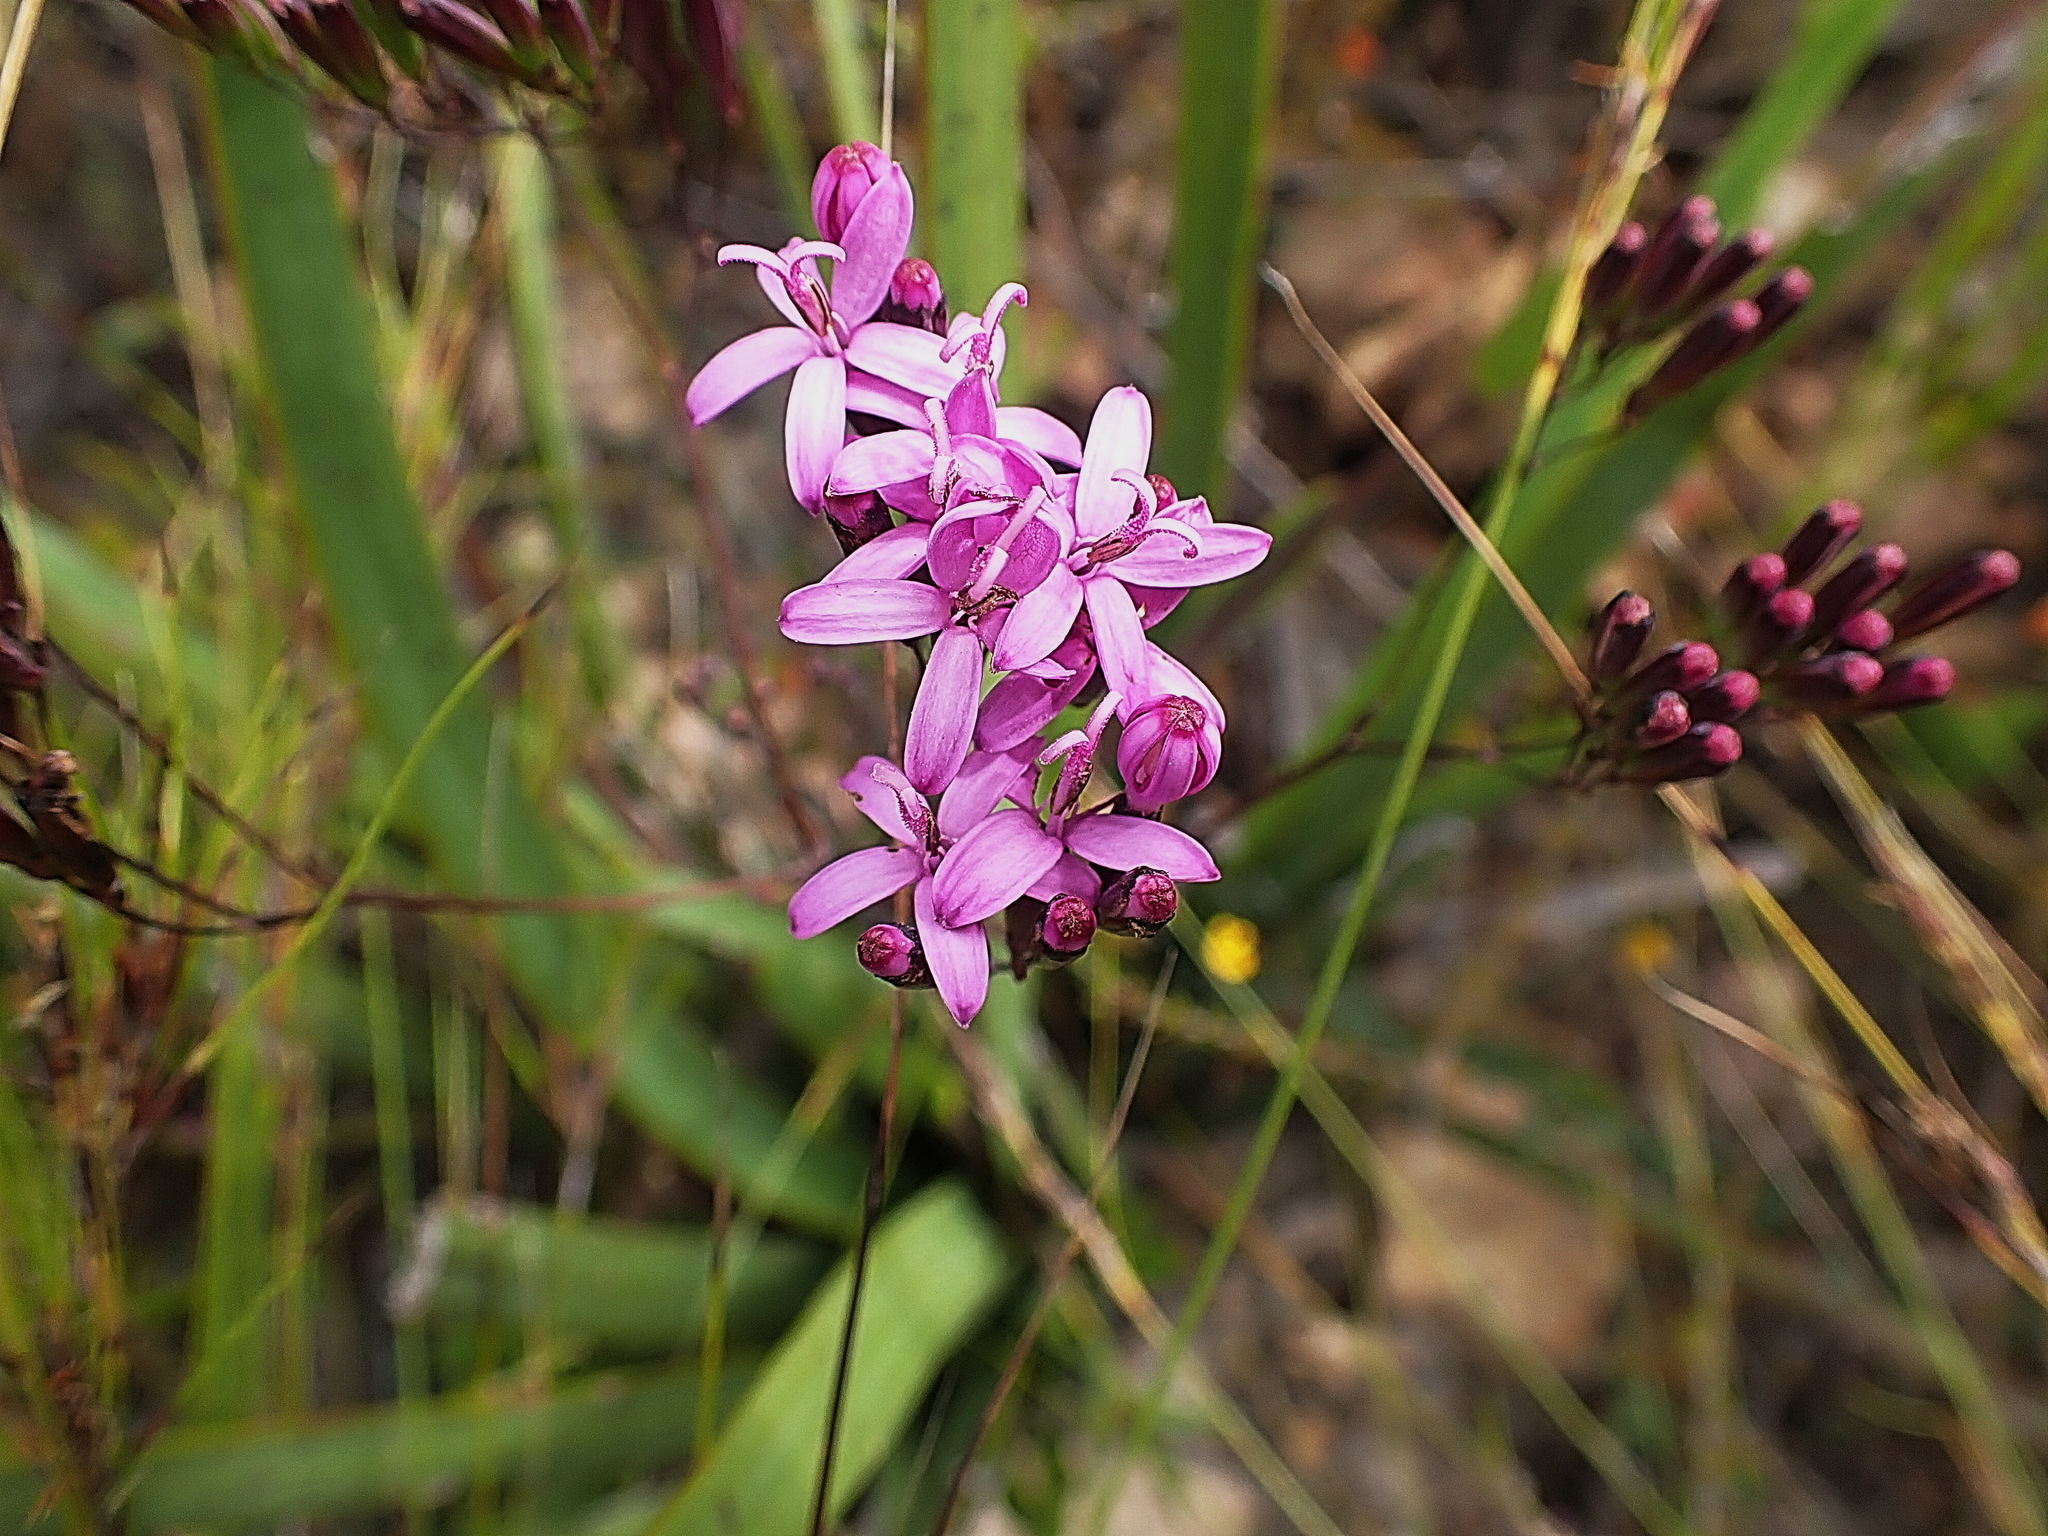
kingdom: Plantae
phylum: Tracheophyta
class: Magnoliopsida
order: Asterales
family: Asteraceae
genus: Corymbium
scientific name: Corymbium africanum
